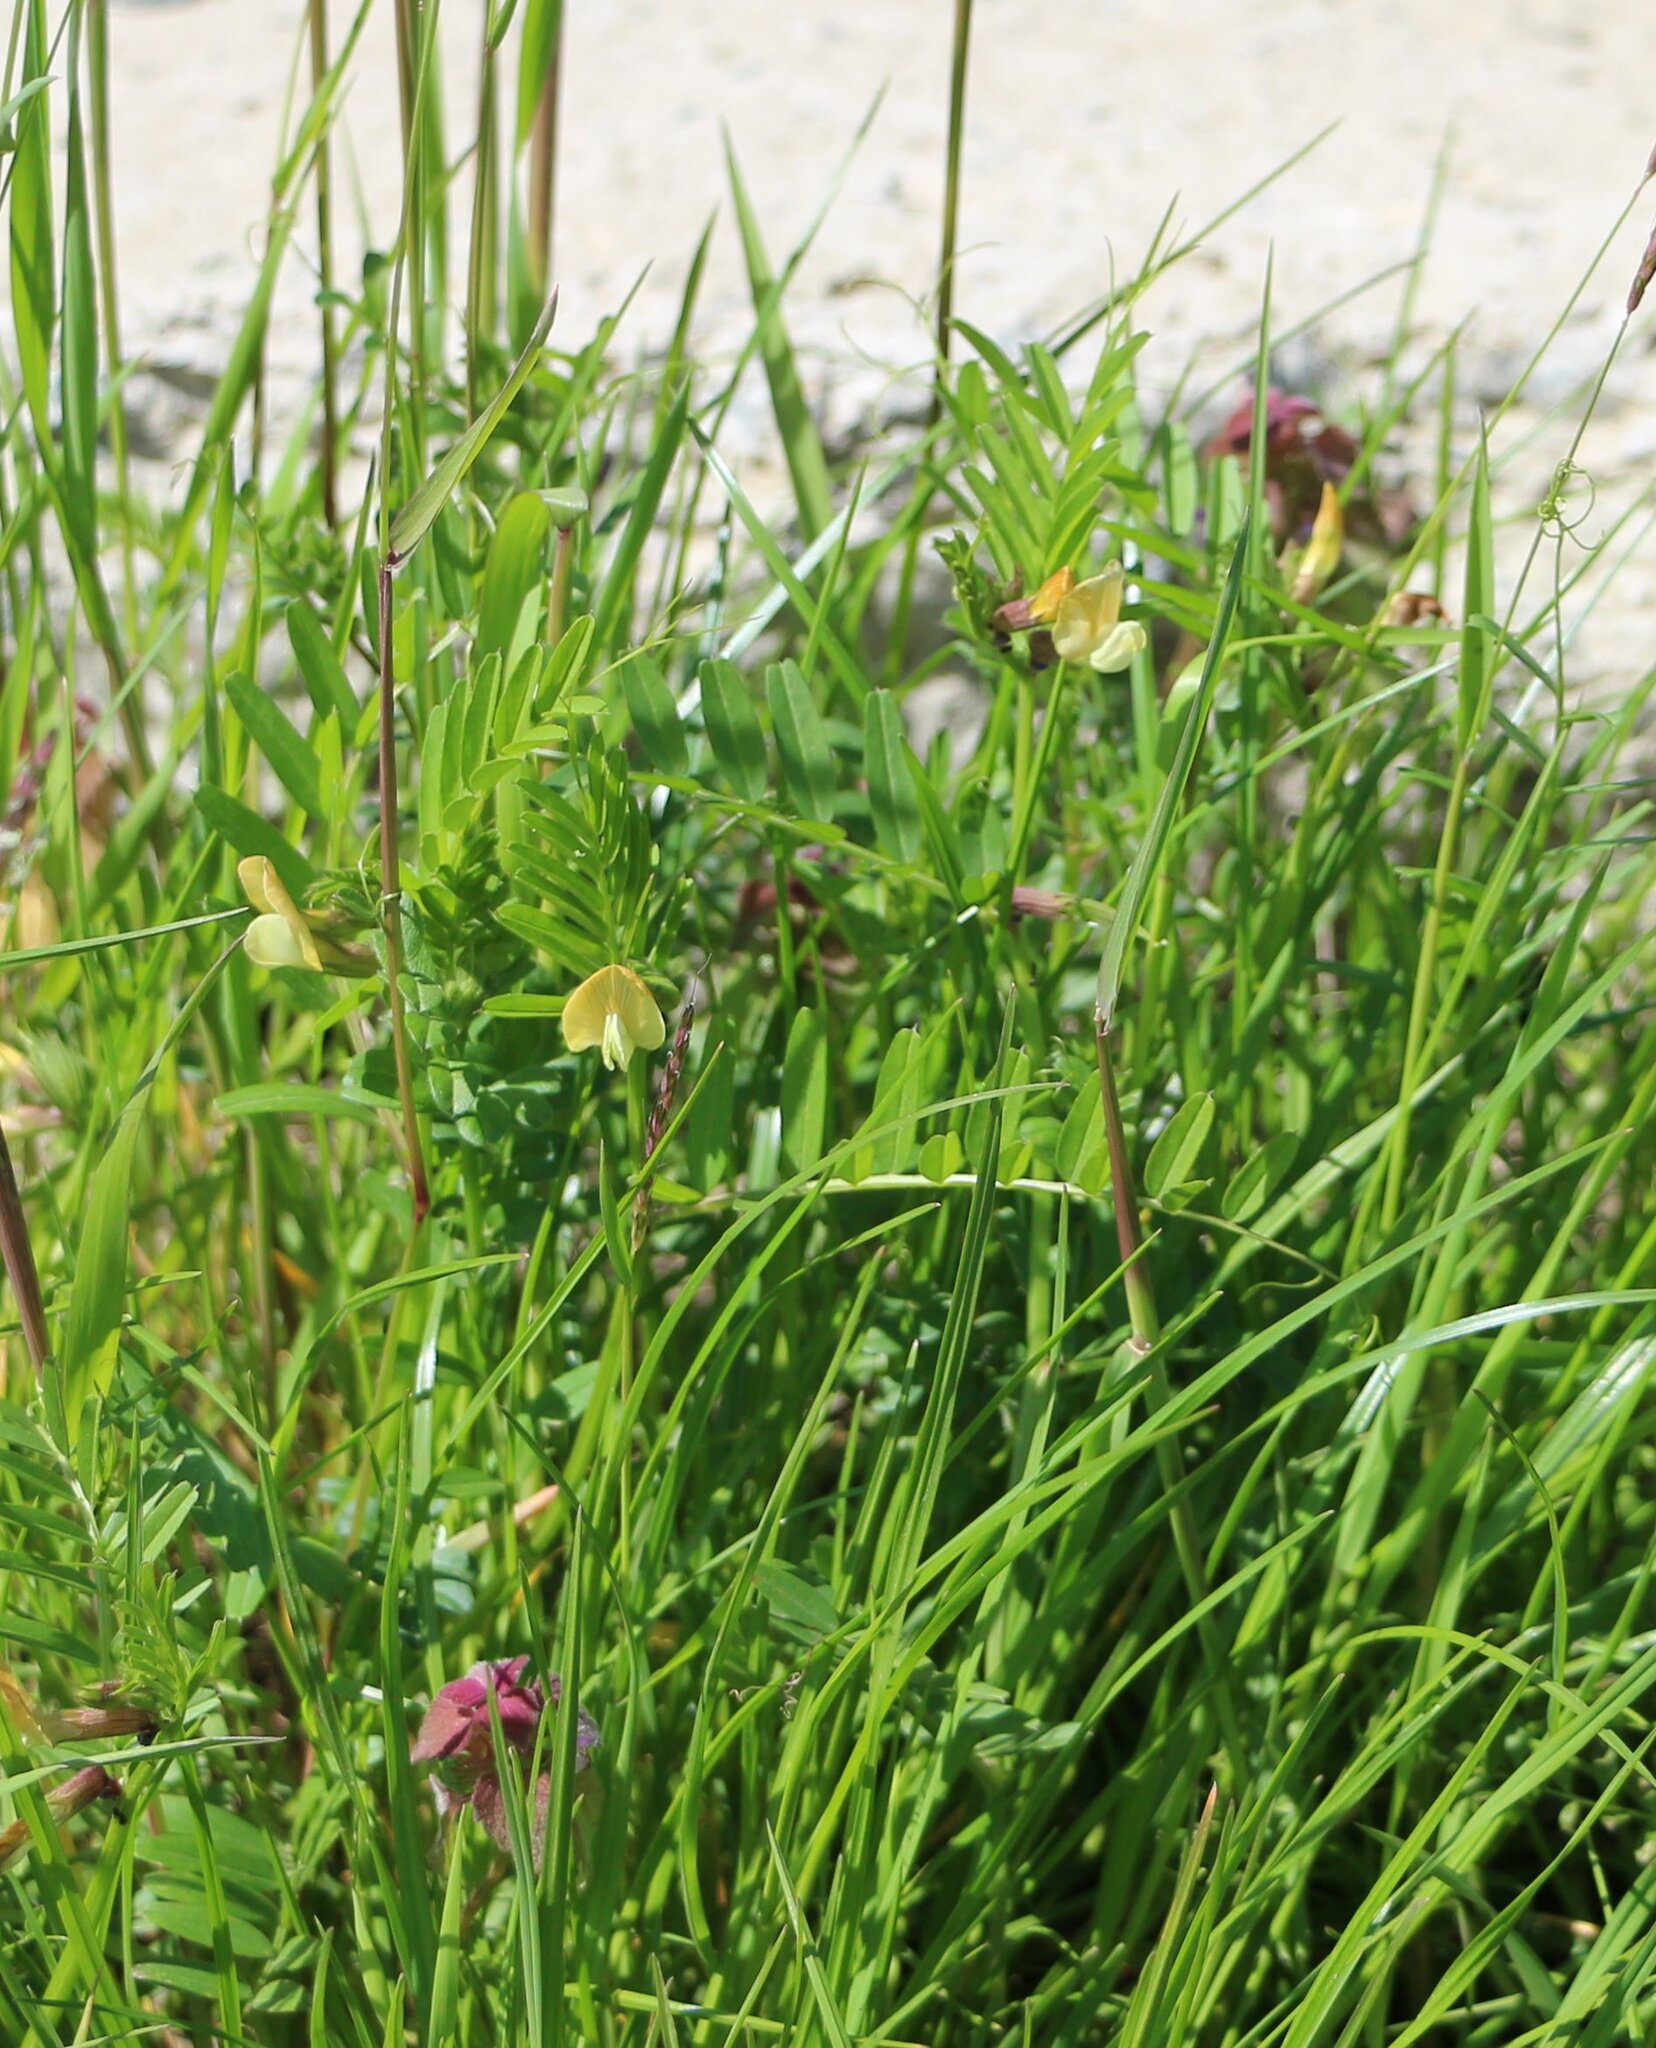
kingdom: Plantae
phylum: Tracheophyta
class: Magnoliopsida
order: Fabales
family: Fabaceae
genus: Vicia
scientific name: Vicia grandiflora
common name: Large yellow vetch
